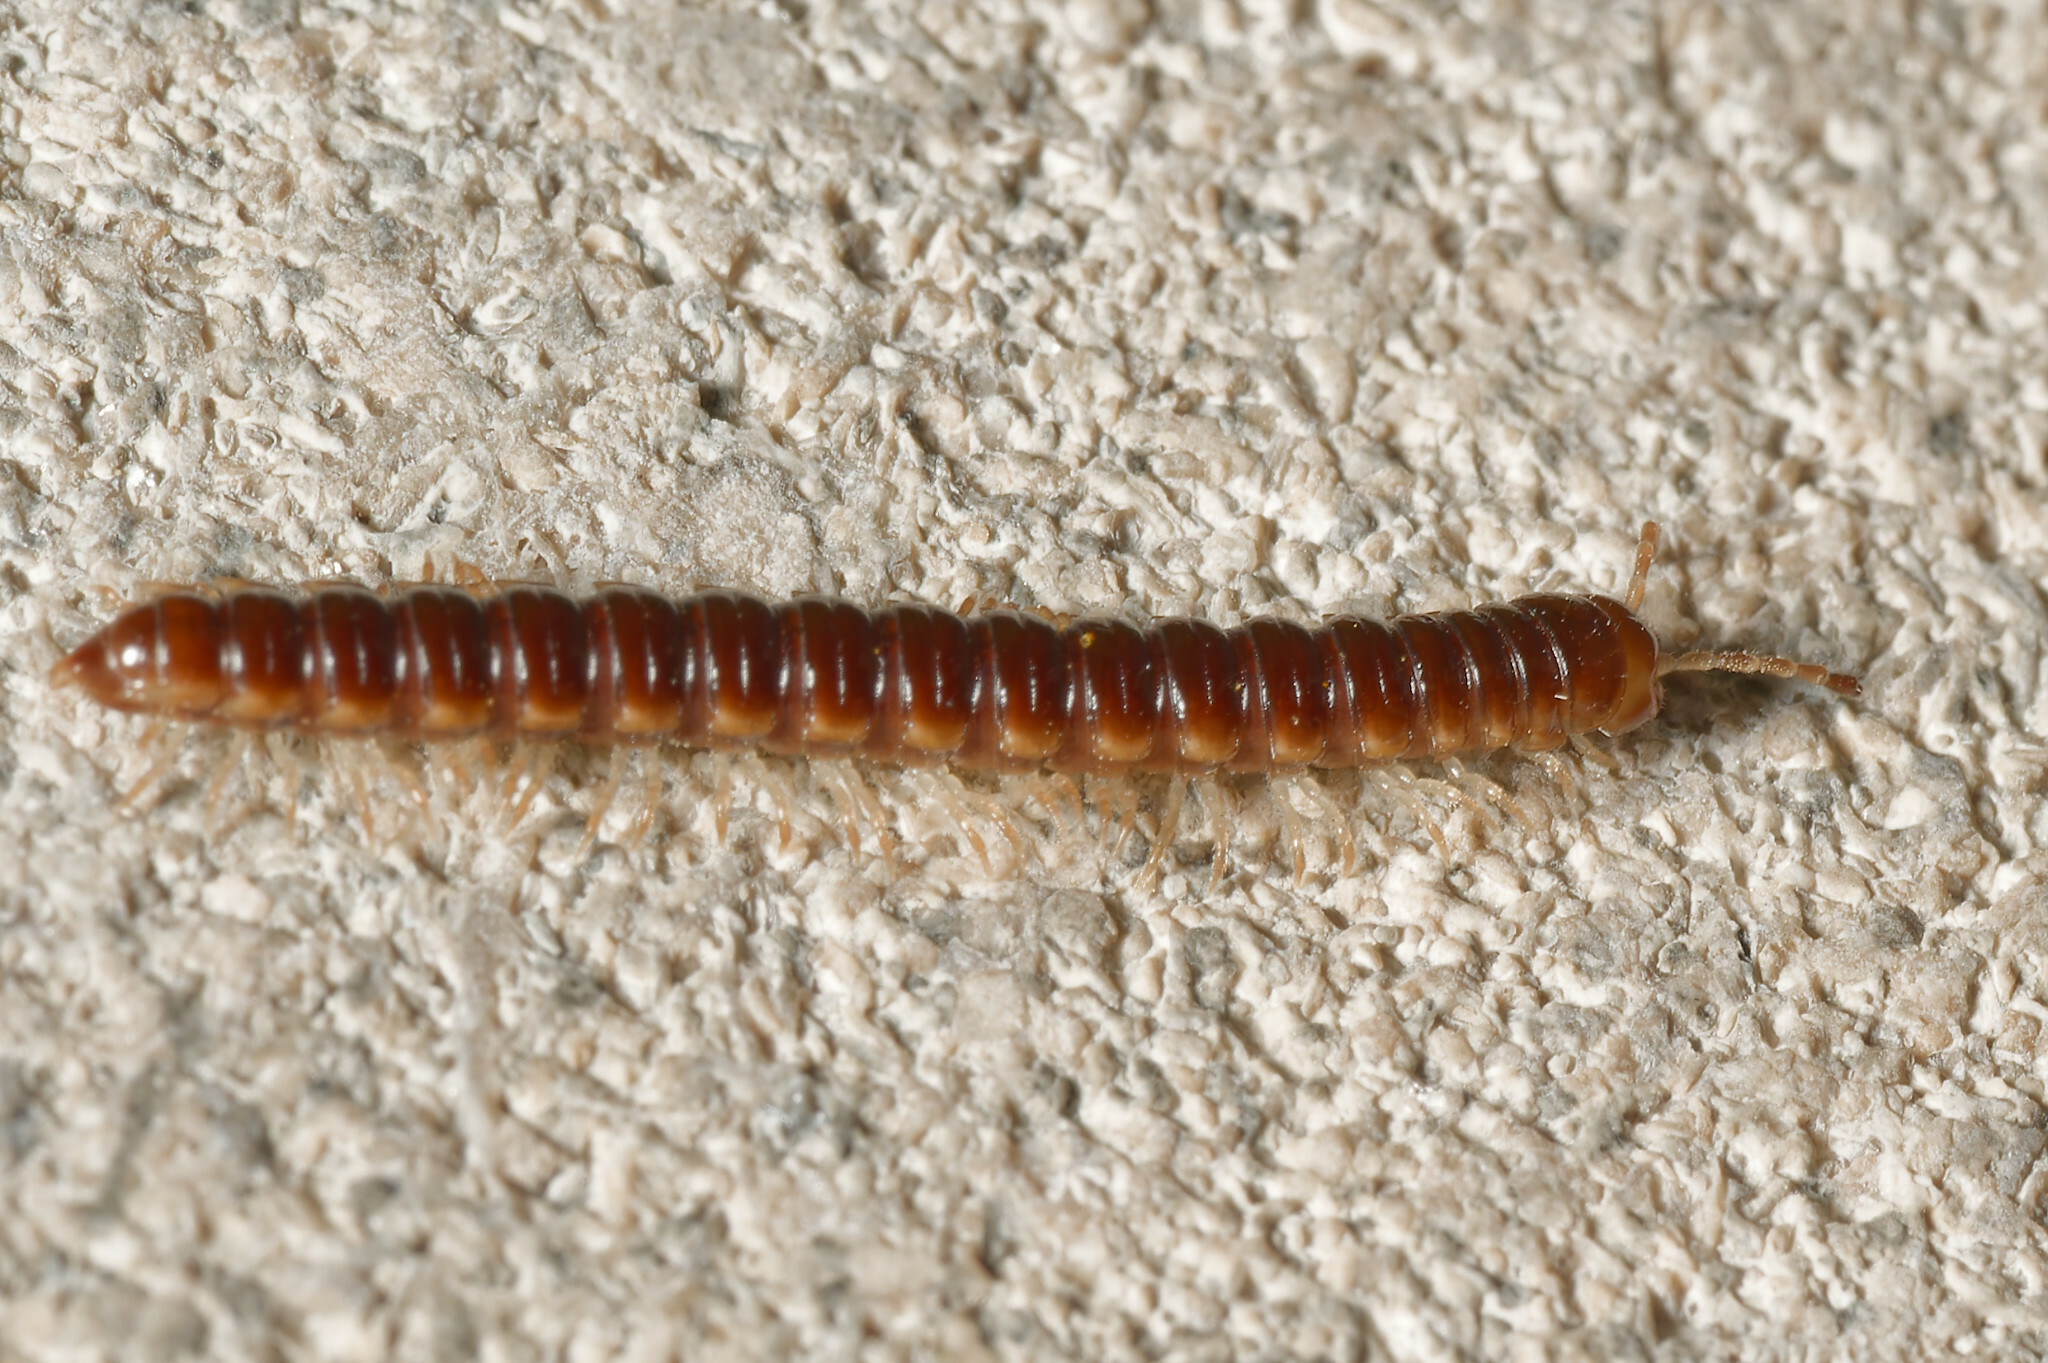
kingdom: Animalia
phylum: Arthropoda
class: Diplopoda
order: Polydesmida
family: Paradoxosomatidae
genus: Oxidus
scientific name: Oxidus gracilis
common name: Greenhouse millipede
